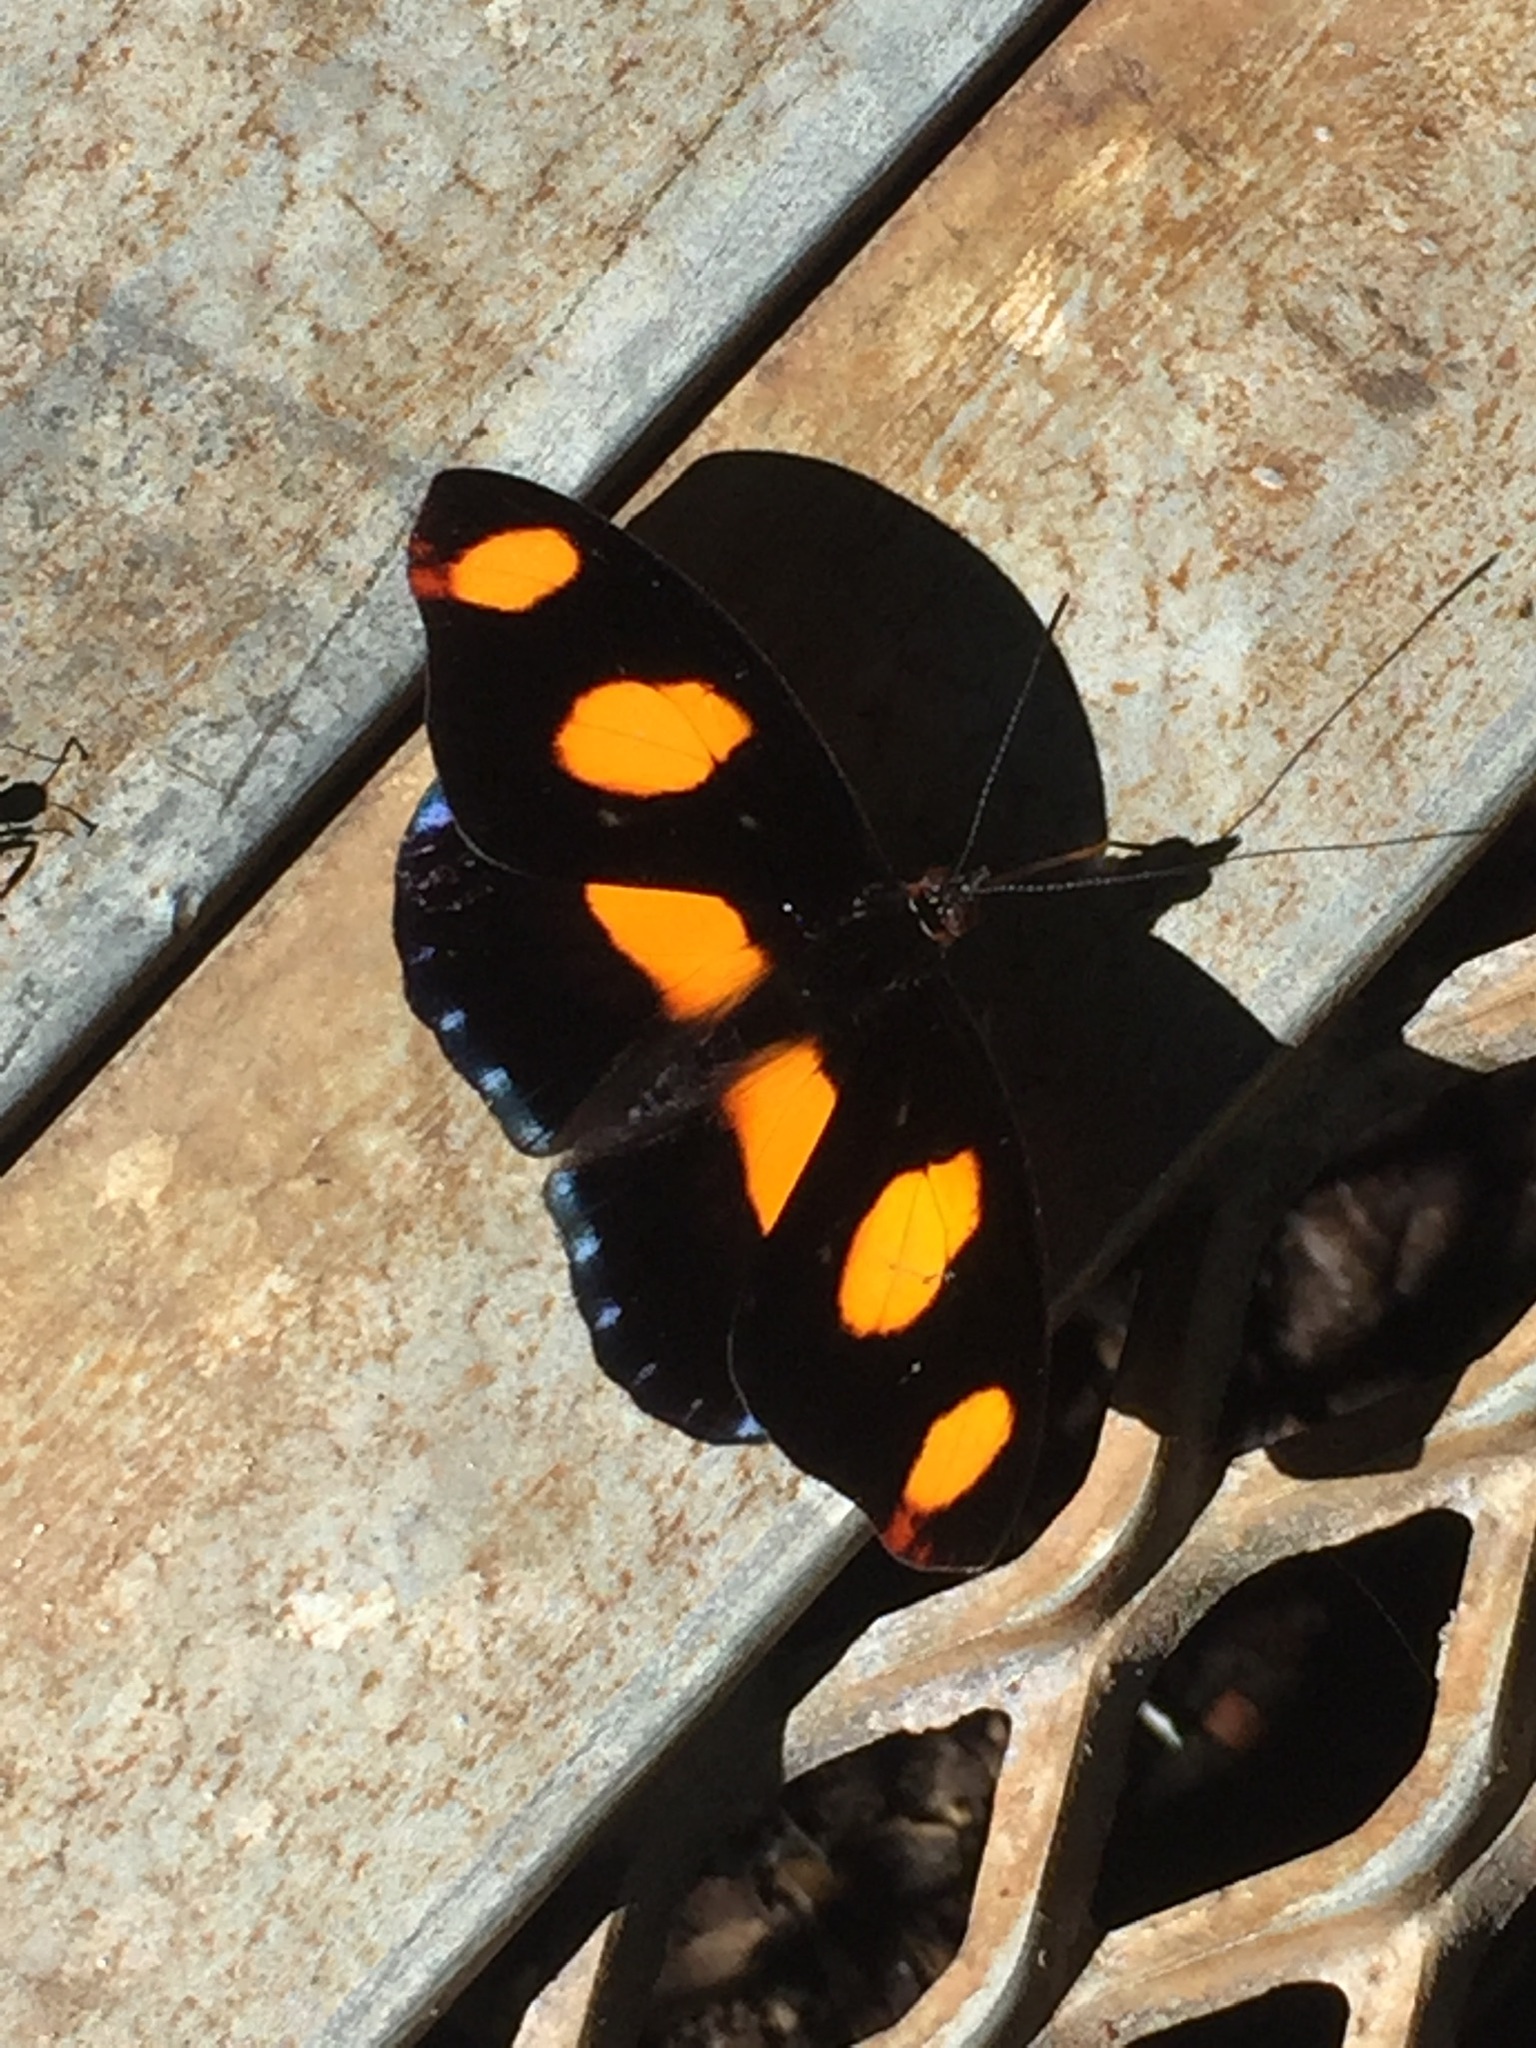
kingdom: Animalia
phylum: Arthropoda
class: Insecta
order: Lepidoptera
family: Nymphalidae
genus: Catonephele
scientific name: Catonephele numilia
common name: Blue-frosted banner
